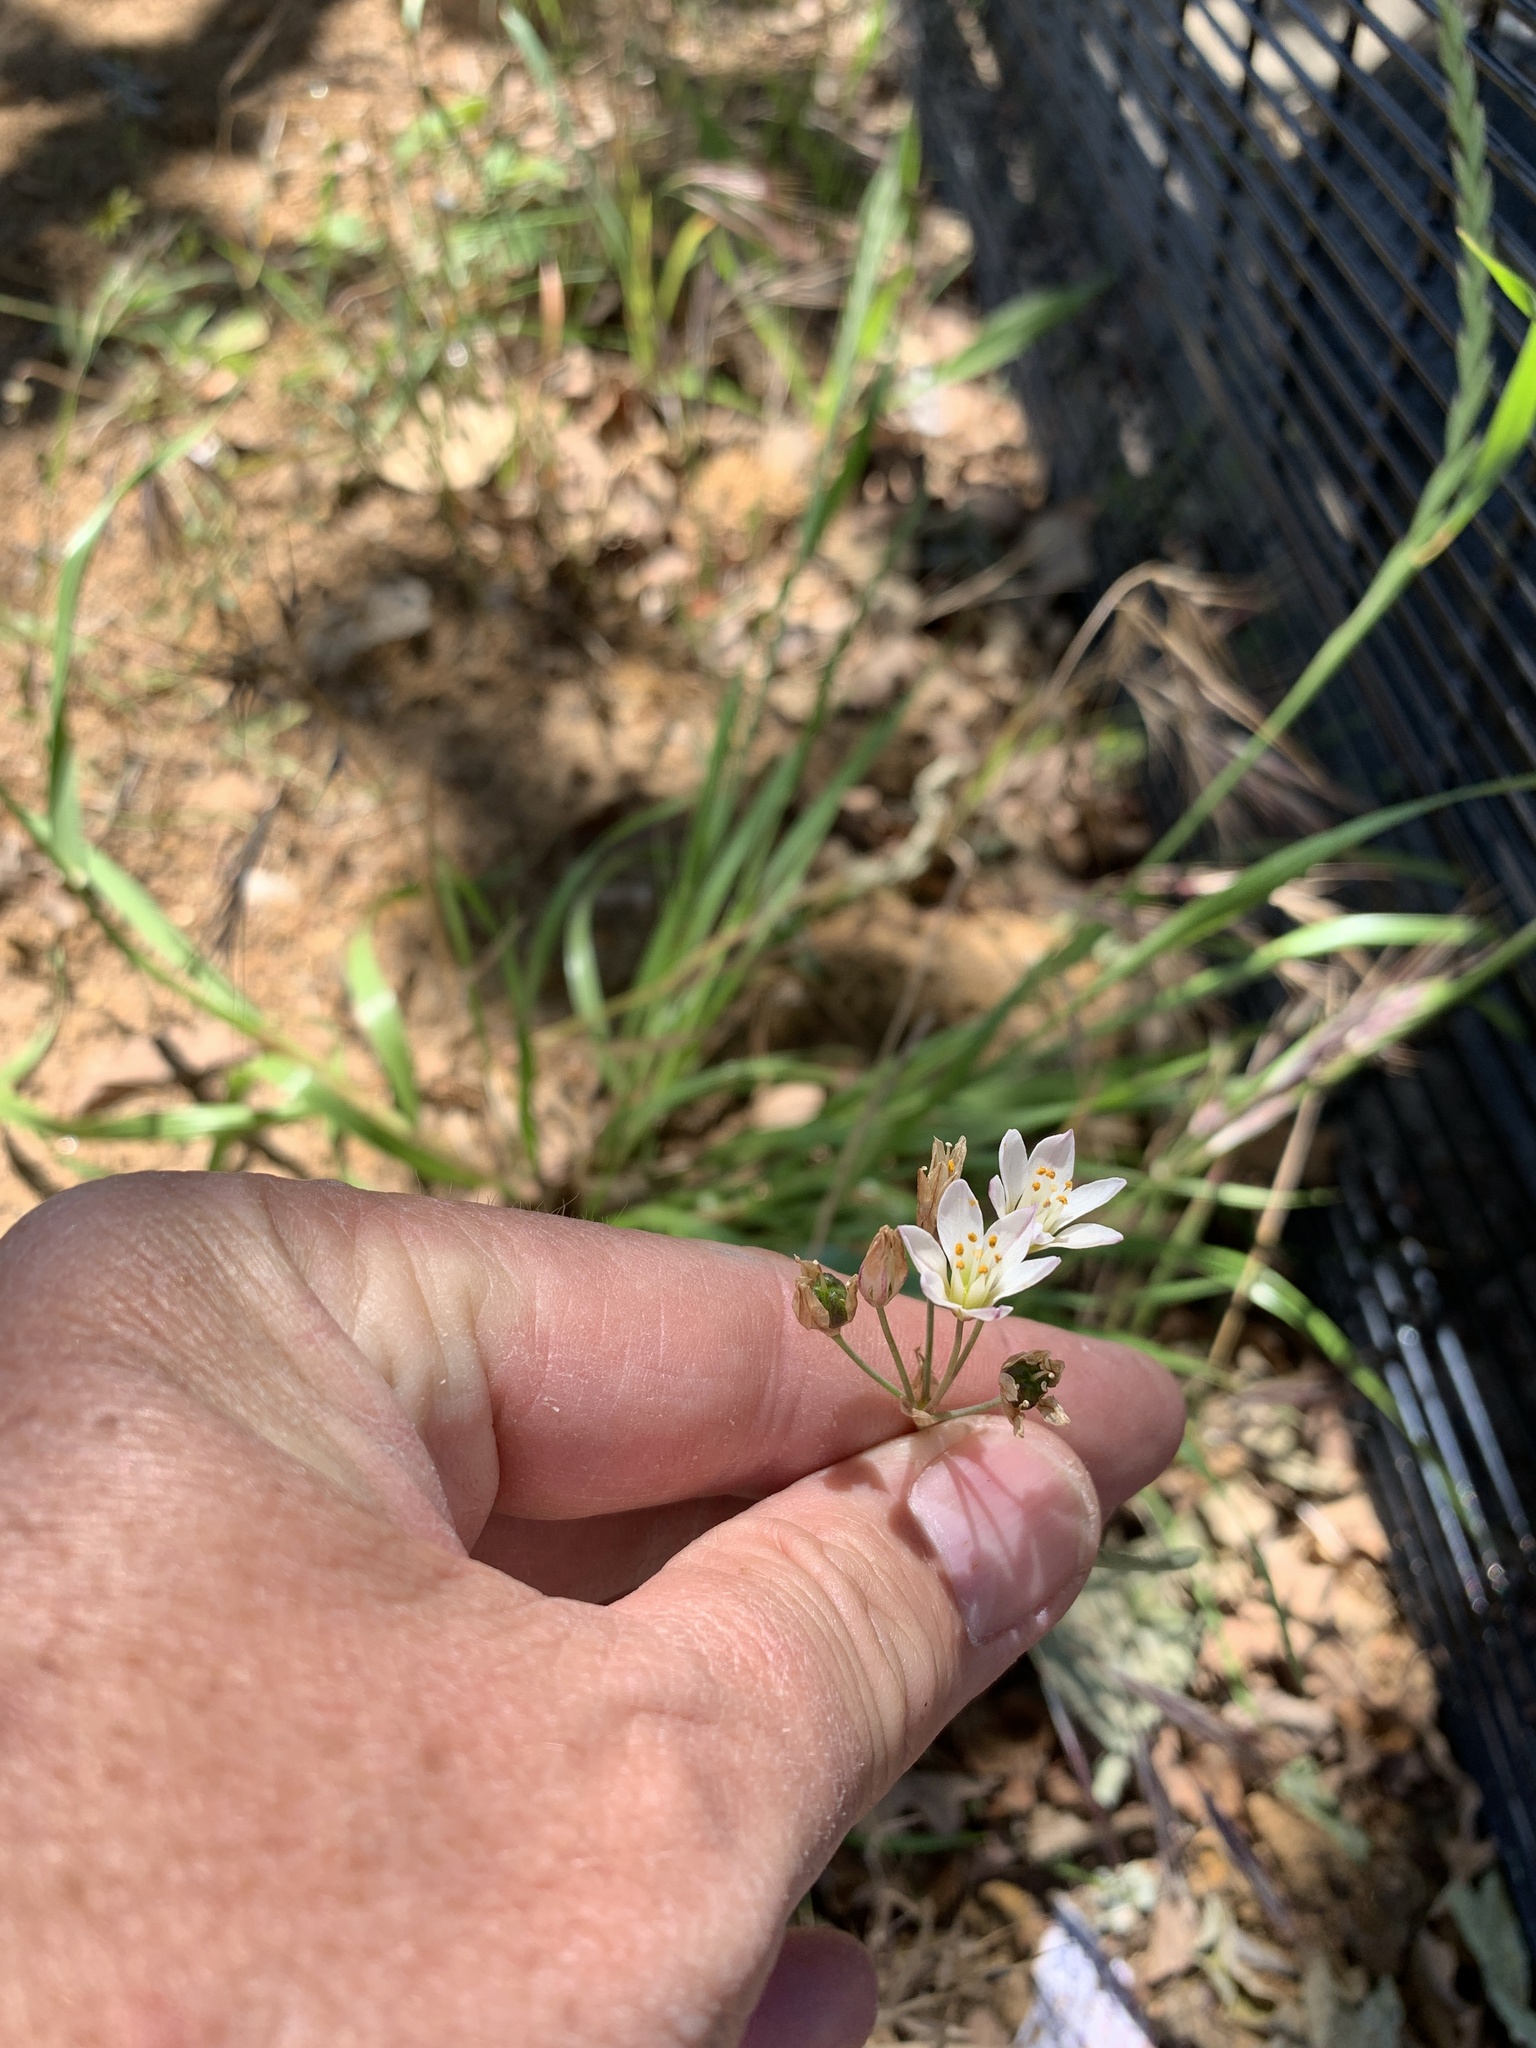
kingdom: Plantae
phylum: Tracheophyta
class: Liliopsida
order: Asparagales
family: Amaryllidaceae
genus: Nothoscordum
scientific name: Nothoscordum gracile
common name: Slender false garlic
